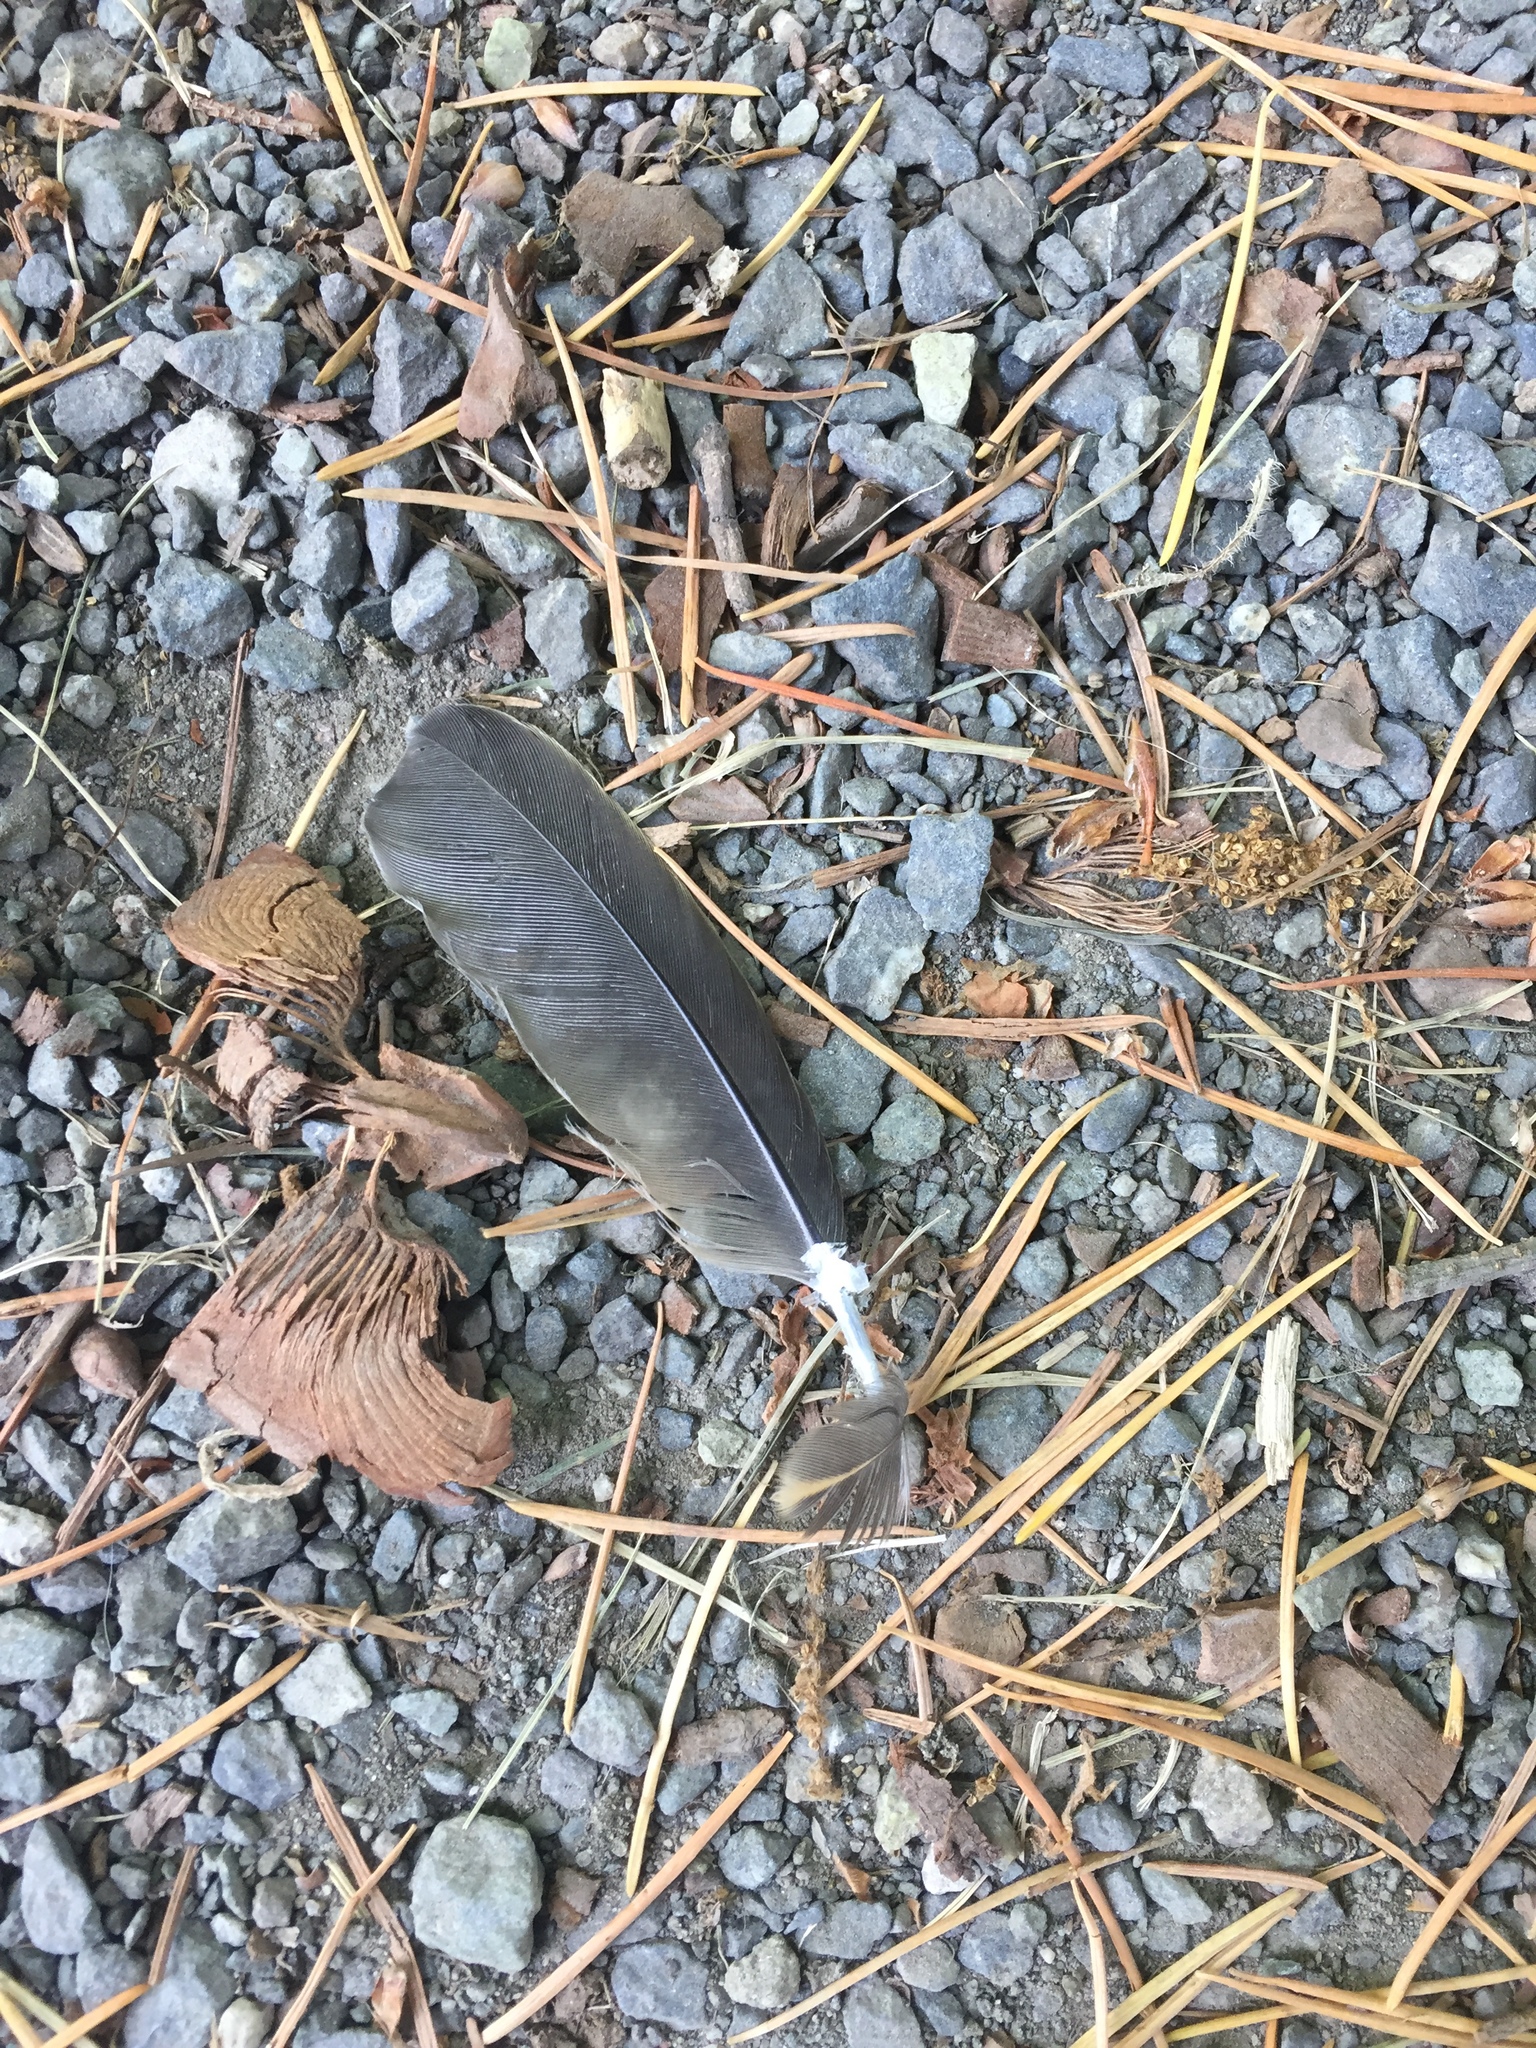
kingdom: Animalia
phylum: Chordata
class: Aves
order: Passeriformes
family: Turdidae
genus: Turdus
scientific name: Turdus migratorius
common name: American robin
